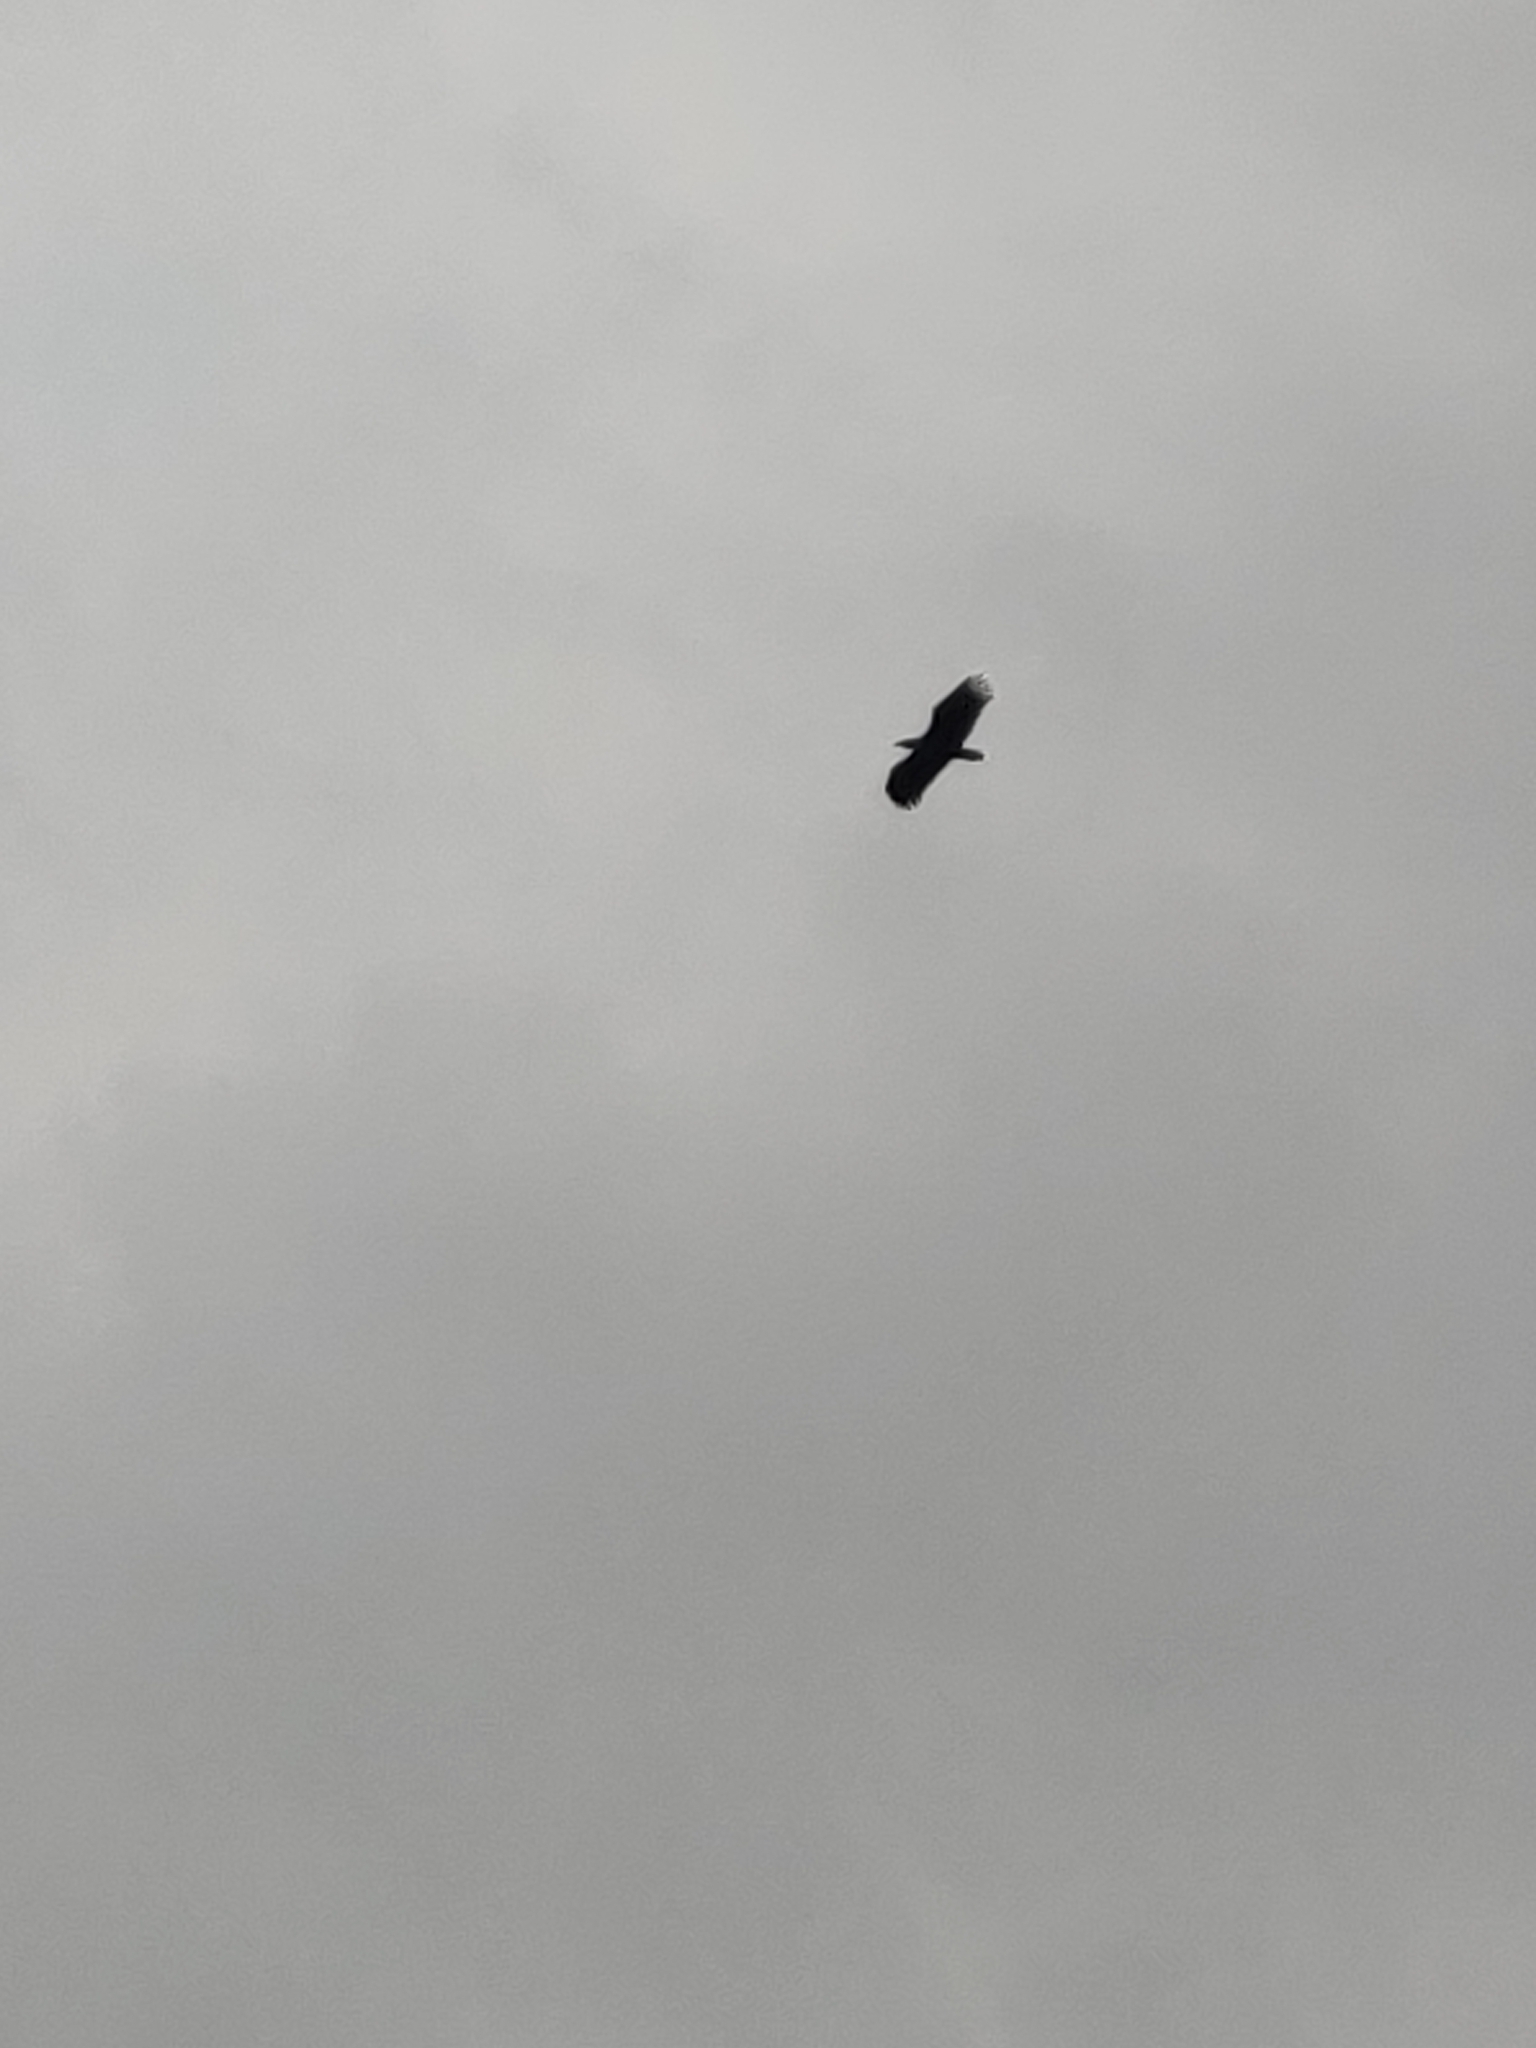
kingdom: Animalia
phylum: Chordata
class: Aves
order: Accipitriformes
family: Accipitridae
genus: Haliaeetus
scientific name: Haliaeetus albicilla
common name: White-tailed eagle
